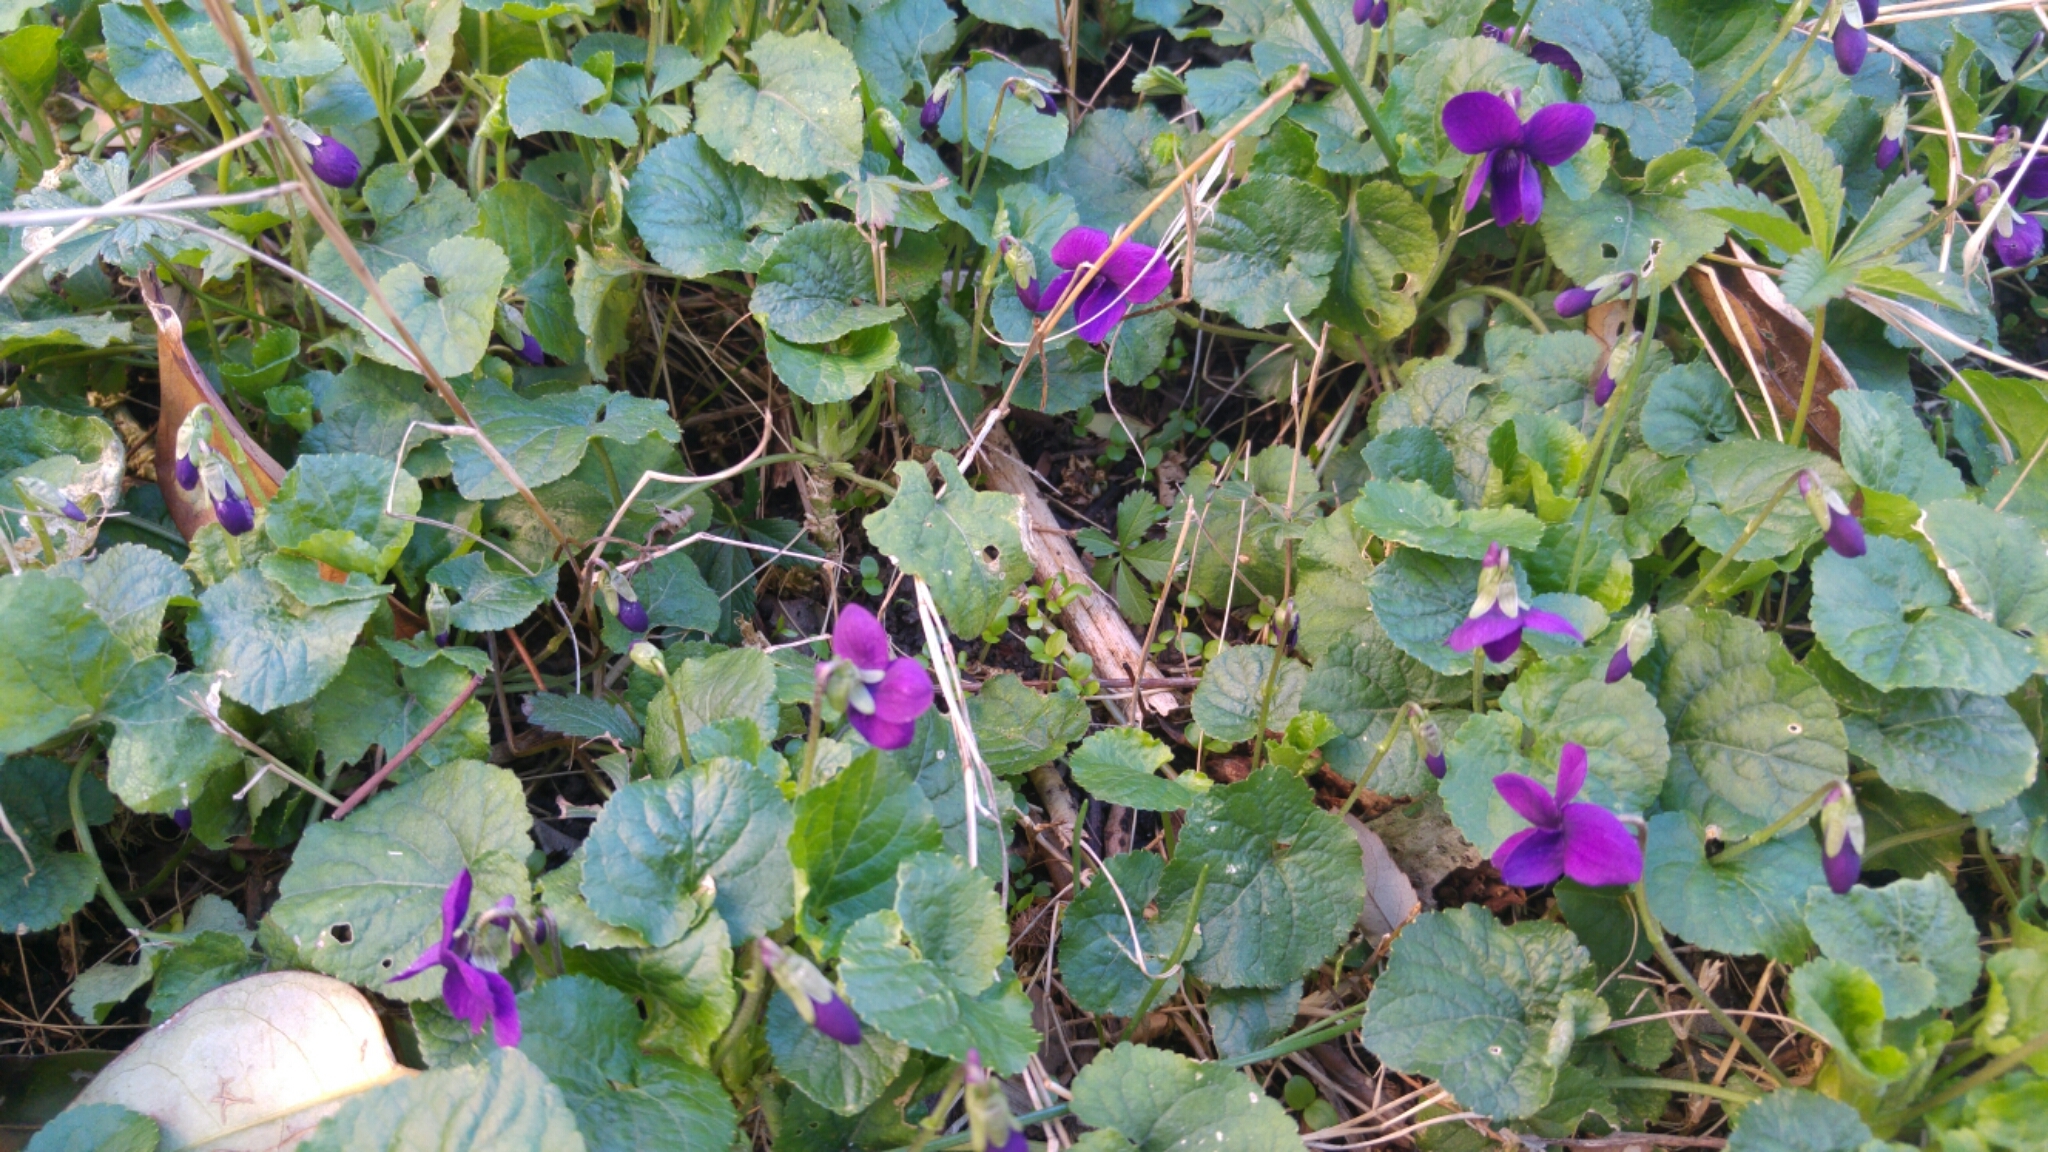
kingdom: Plantae
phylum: Tracheophyta
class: Magnoliopsida
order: Malpighiales
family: Violaceae
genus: Viola
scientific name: Viola odorata
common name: Sweet violet
